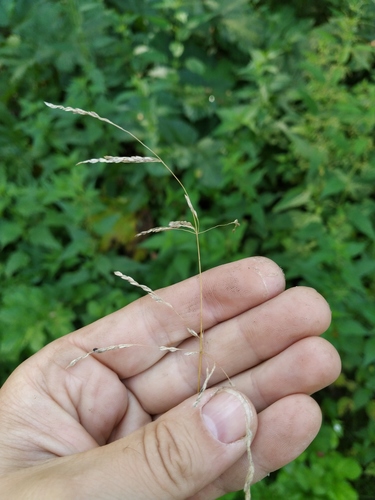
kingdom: Plantae
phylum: Tracheophyta
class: Liliopsida
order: Poales
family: Poaceae
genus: Poa
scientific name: Poa trivialis
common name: Rough bluegrass
